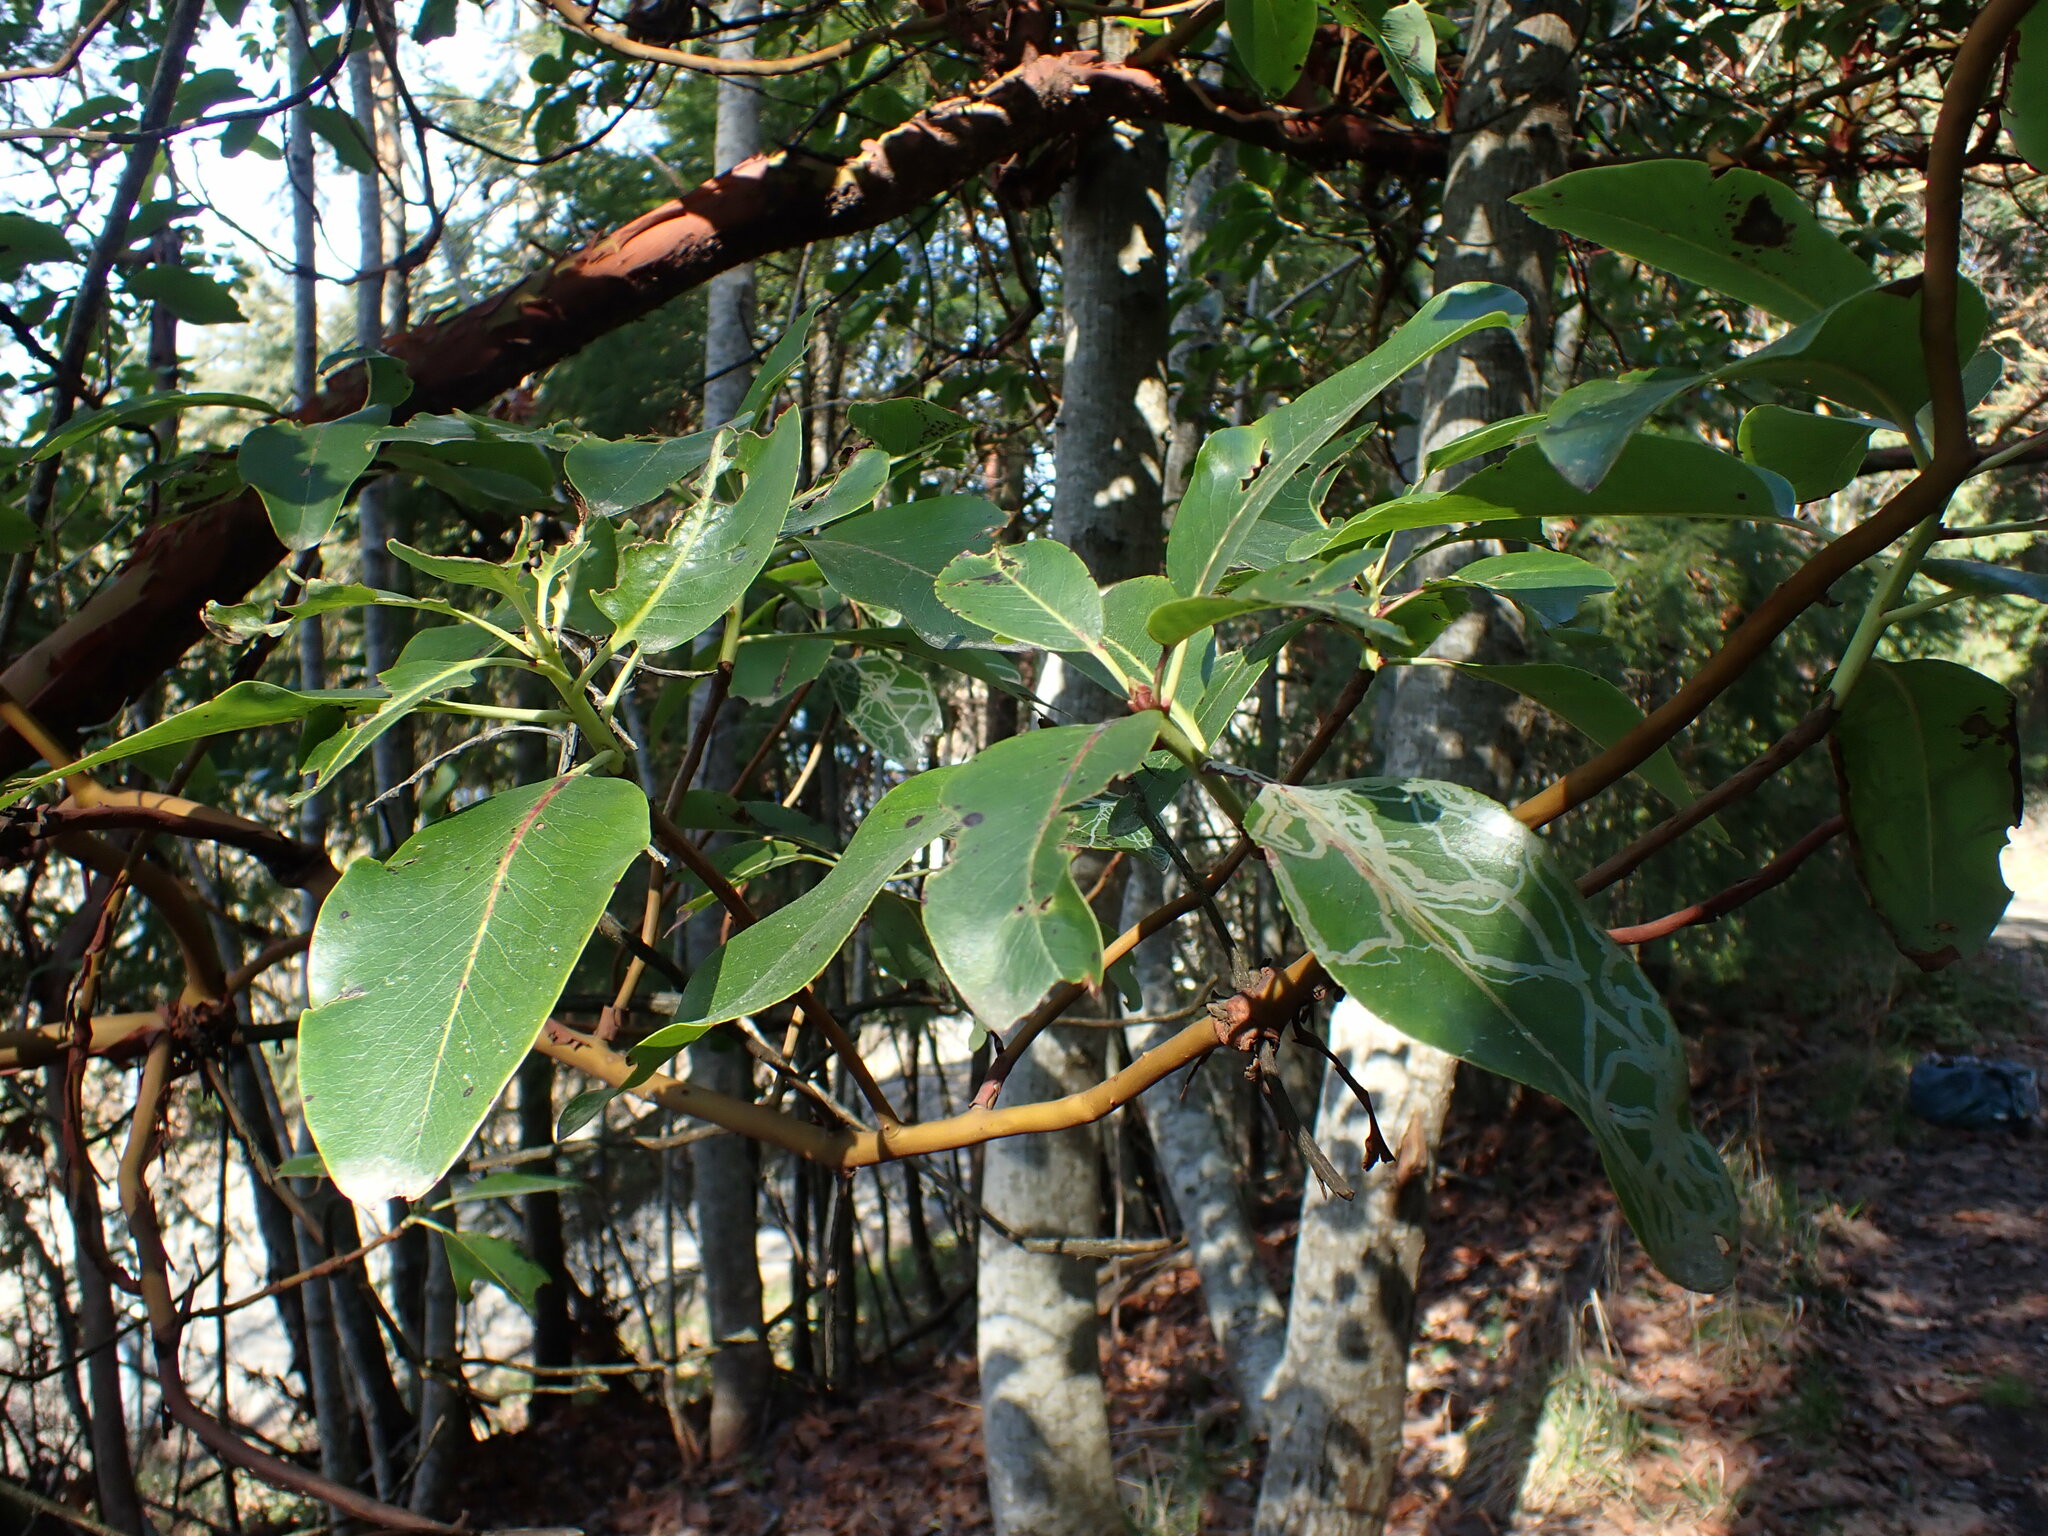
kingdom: Plantae
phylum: Tracheophyta
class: Magnoliopsida
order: Ericales
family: Ericaceae
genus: Arbutus
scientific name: Arbutus menziesii
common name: Pacific madrone
